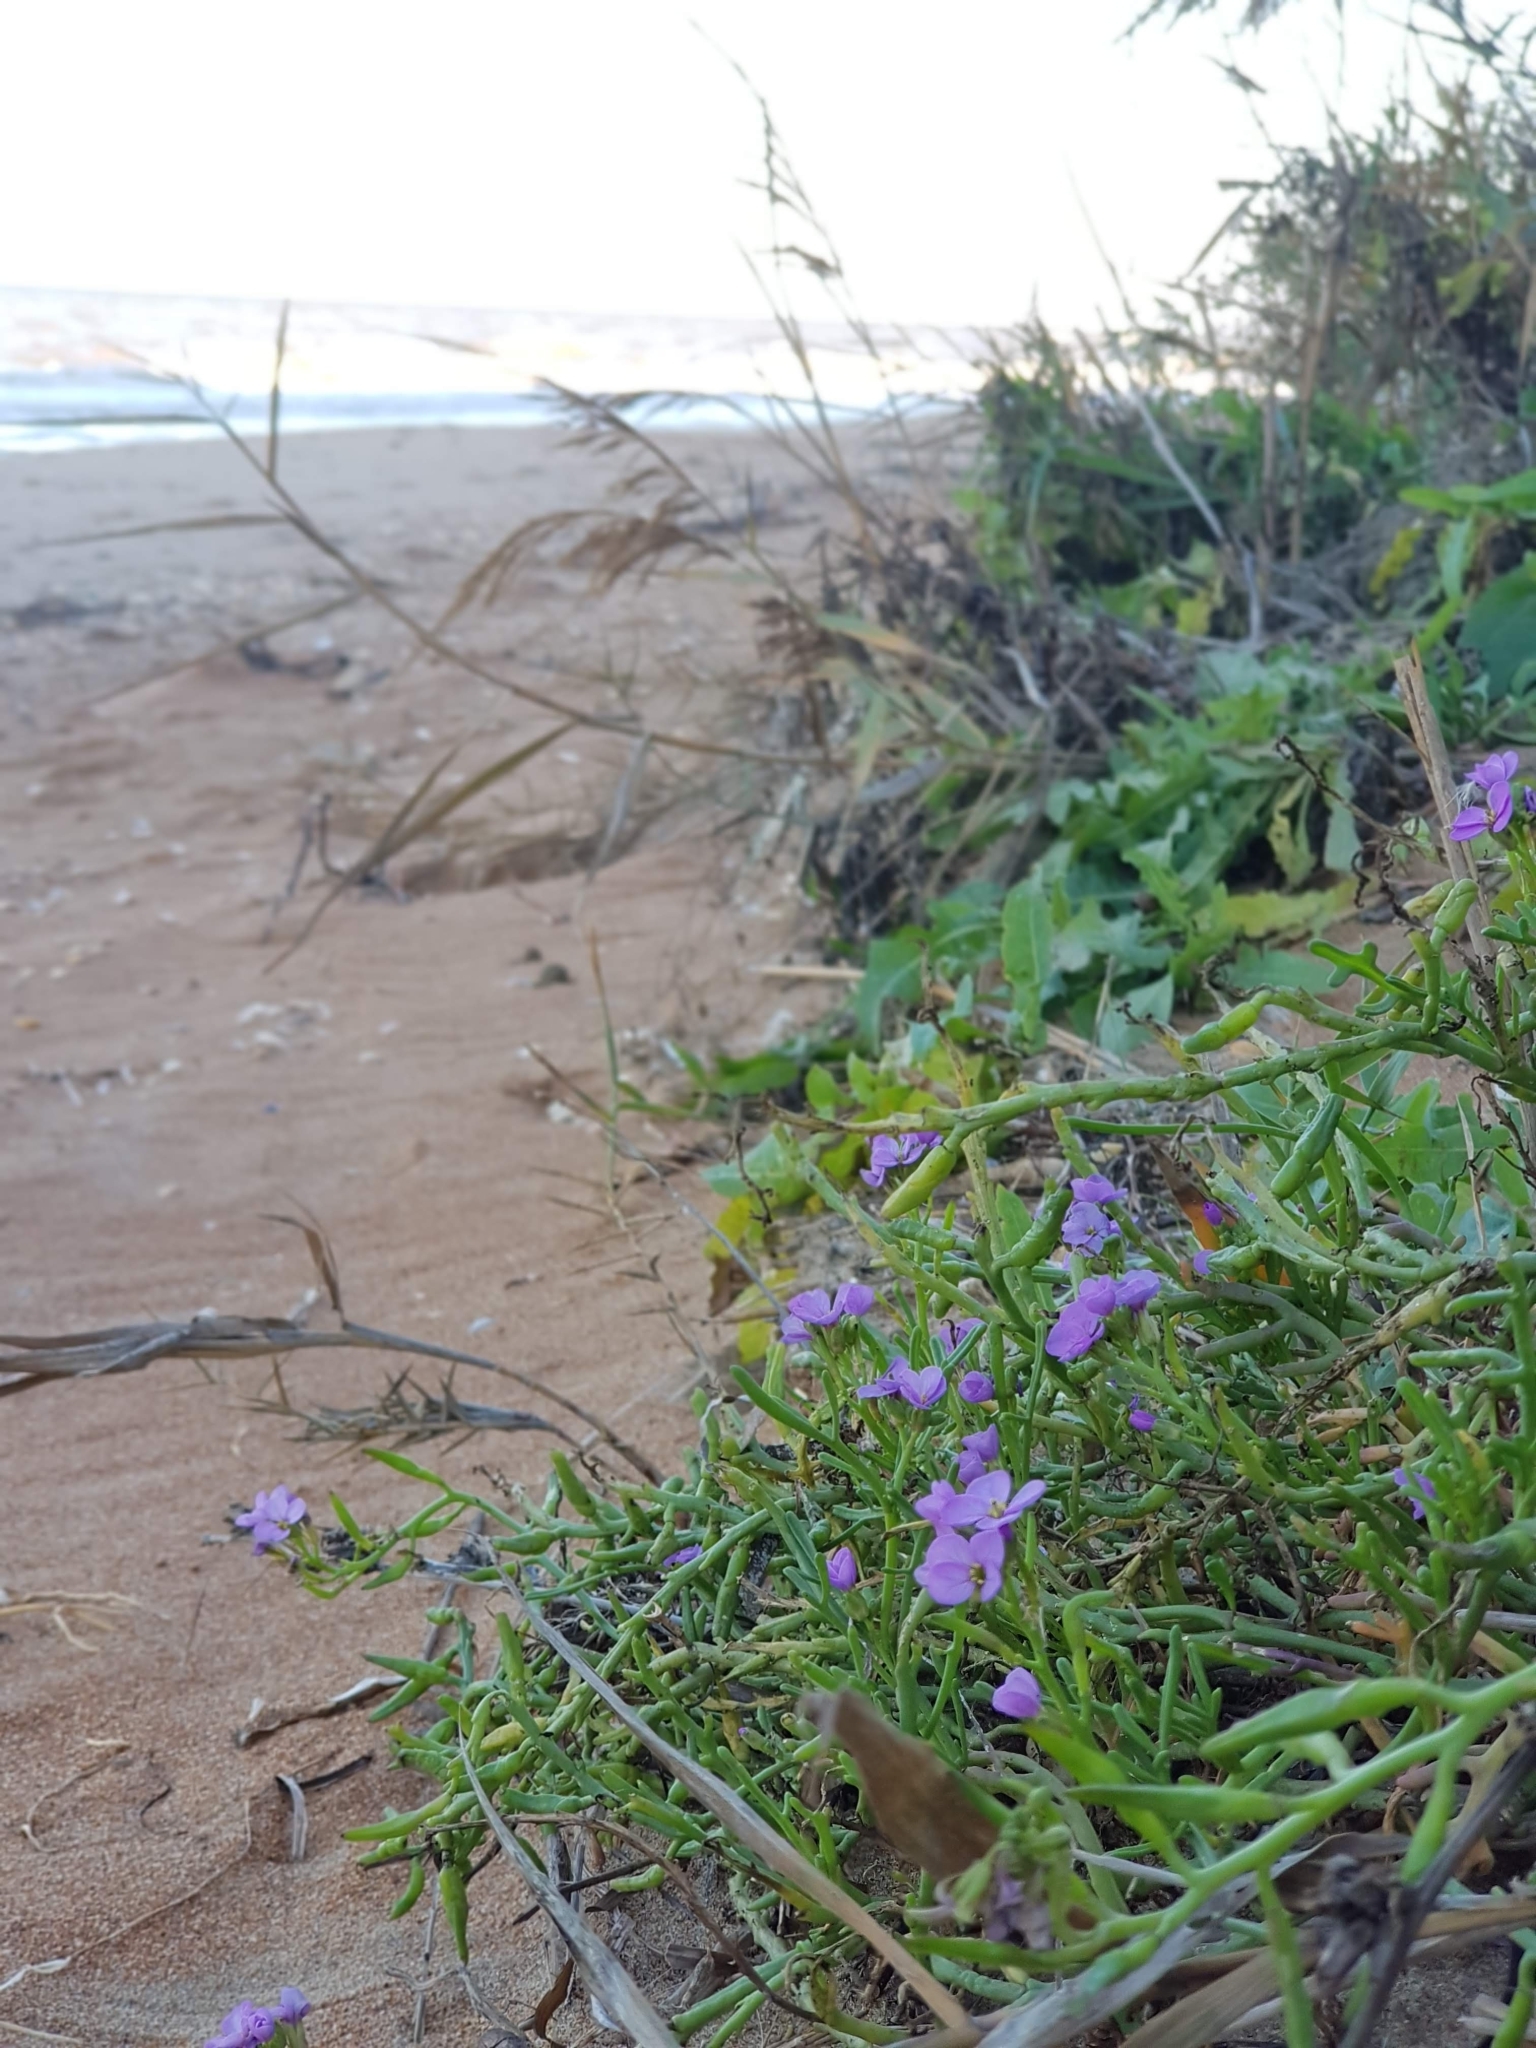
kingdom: Plantae
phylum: Tracheophyta
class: Magnoliopsida
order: Brassicales
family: Brassicaceae
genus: Cakile
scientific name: Cakile maritima
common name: Sea rocket
